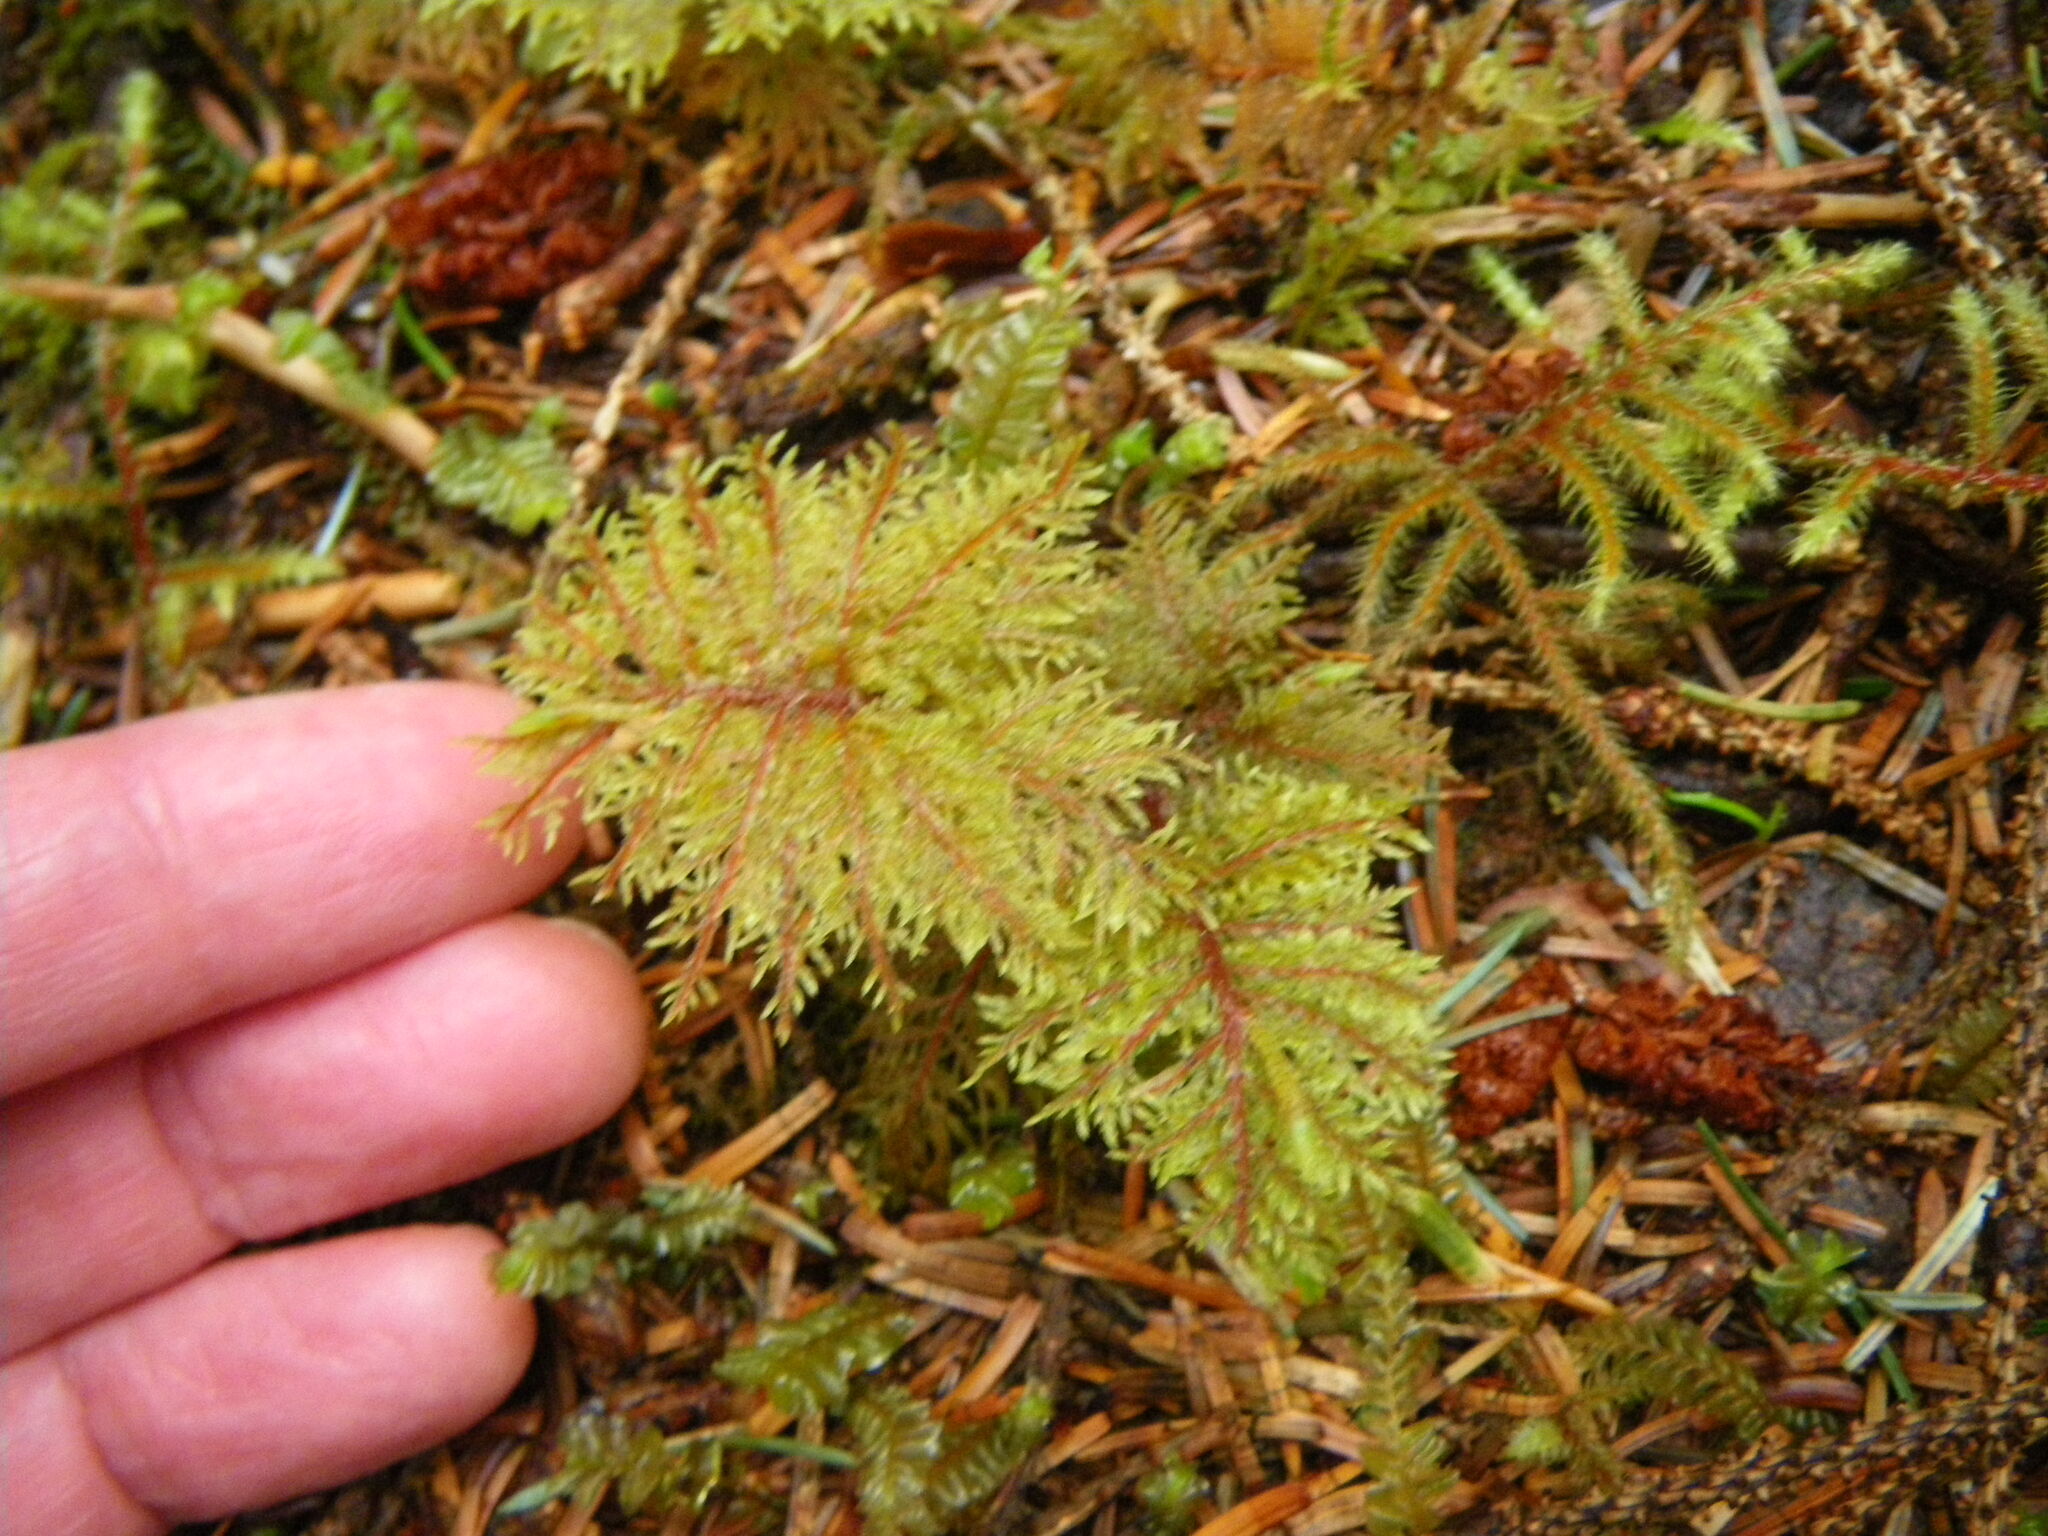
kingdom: Plantae
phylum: Bryophyta
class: Bryopsida
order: Hypnales
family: Hylocomiaceae
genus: Hylocomium
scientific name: Hylocomium splendens
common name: Stairstep moss
